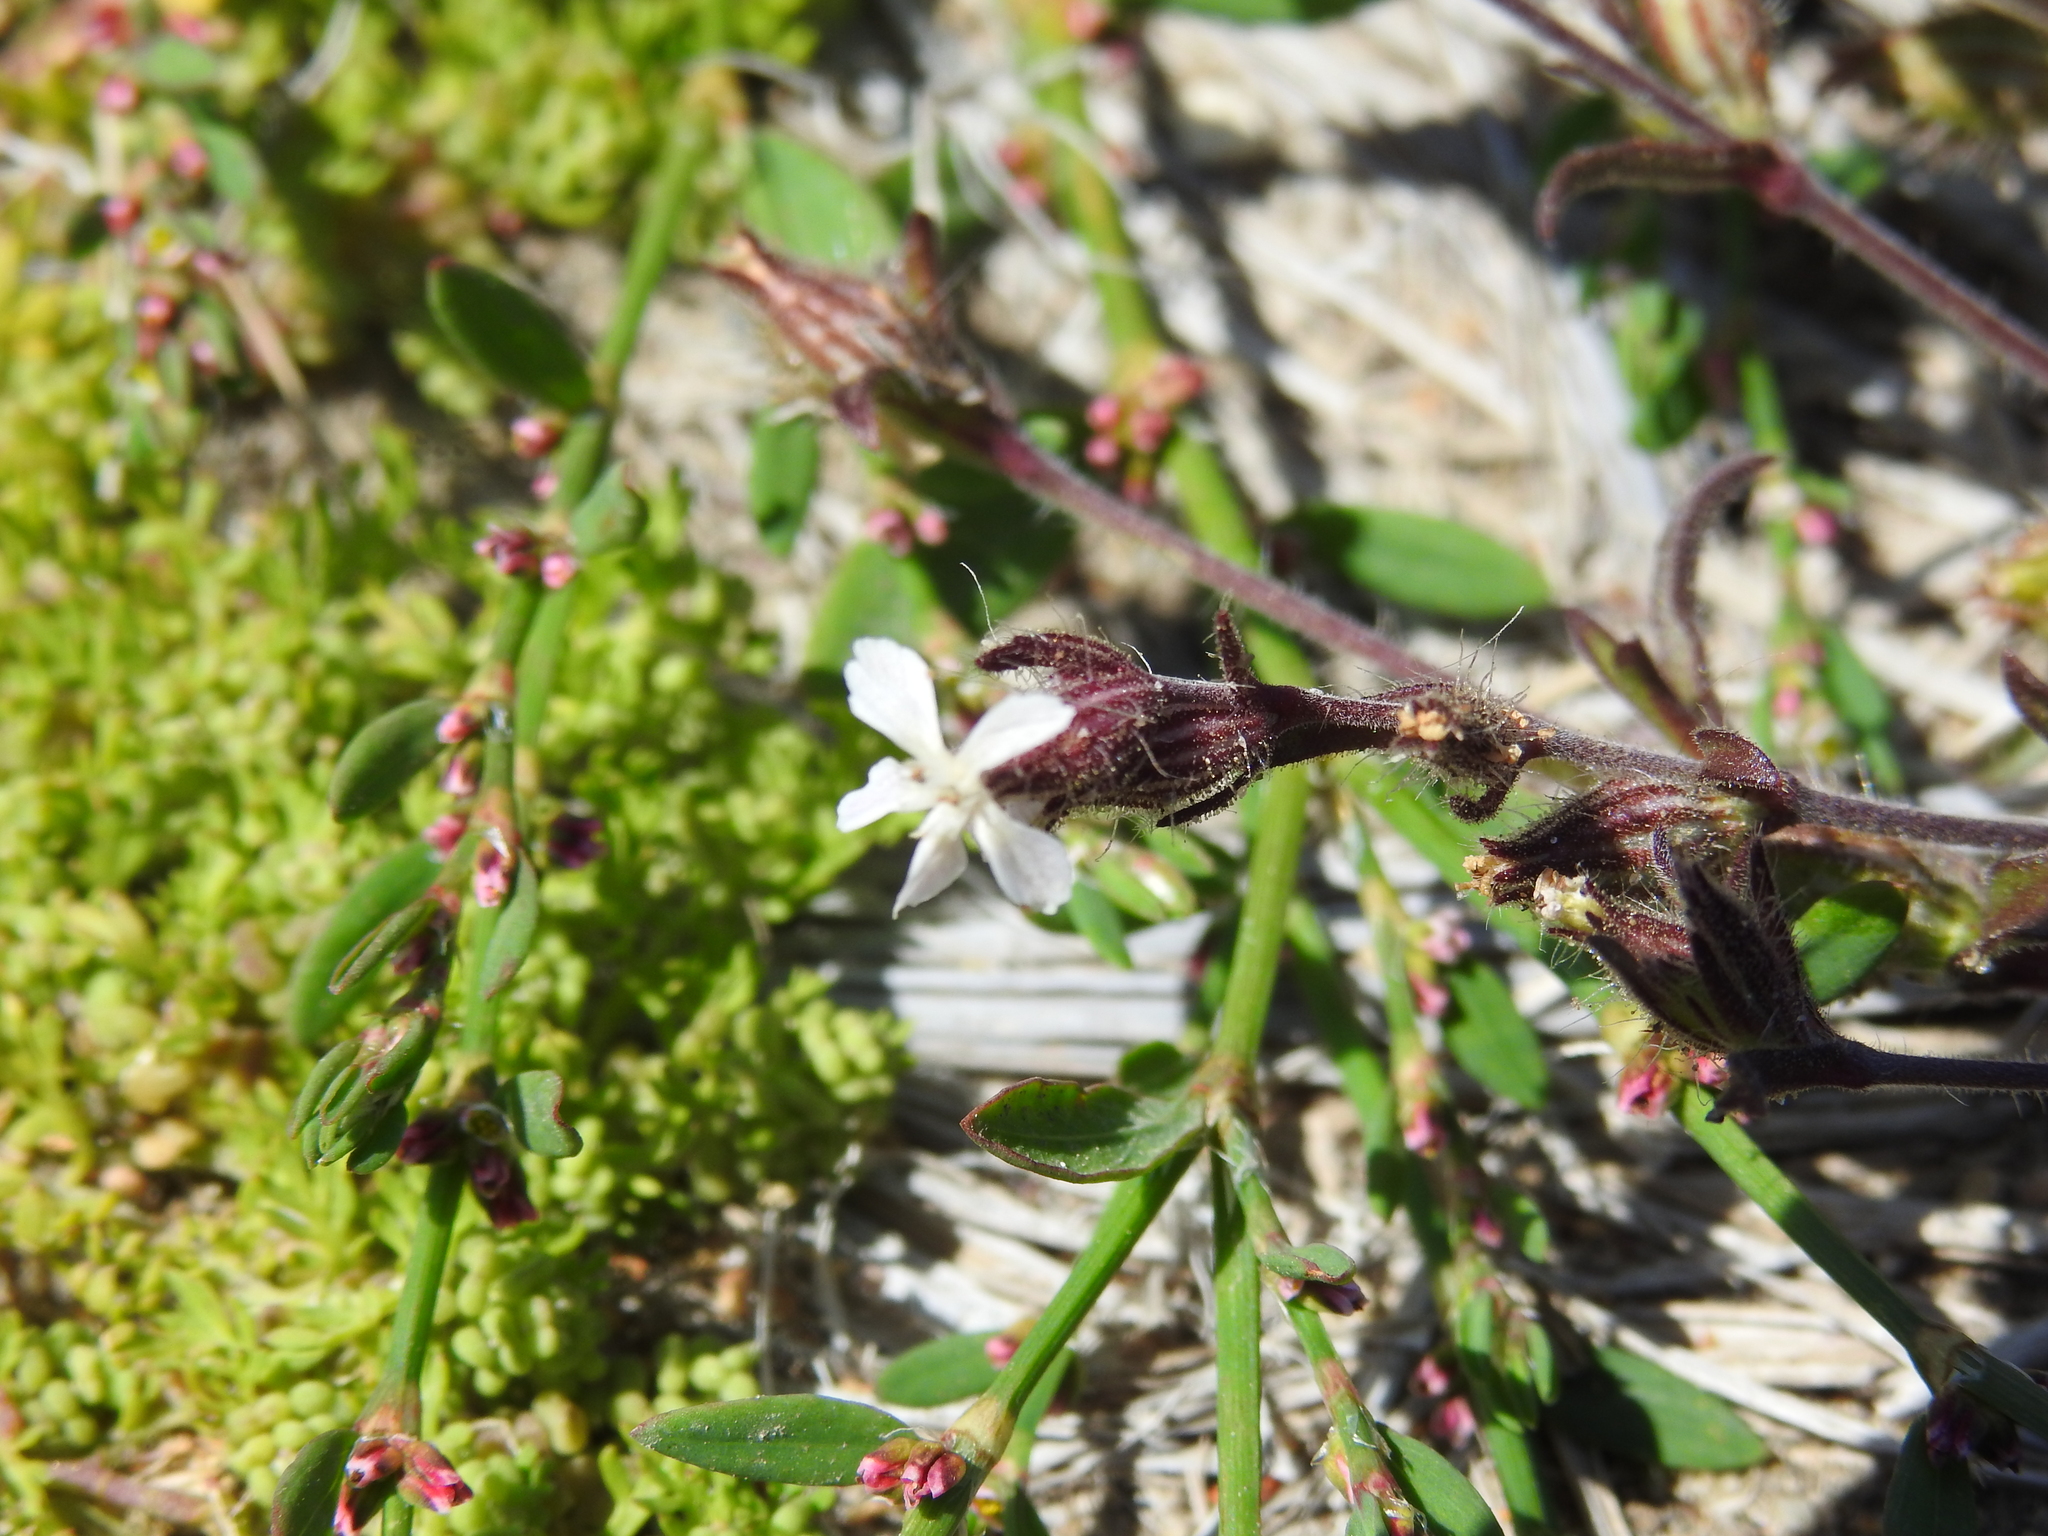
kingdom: Plantae
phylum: Tracheophyta
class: Magnoliopsida
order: Caryophyllales
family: Caryophyllaceae
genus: Silene
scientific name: Silene gallica
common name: Small-flowered catchfly
